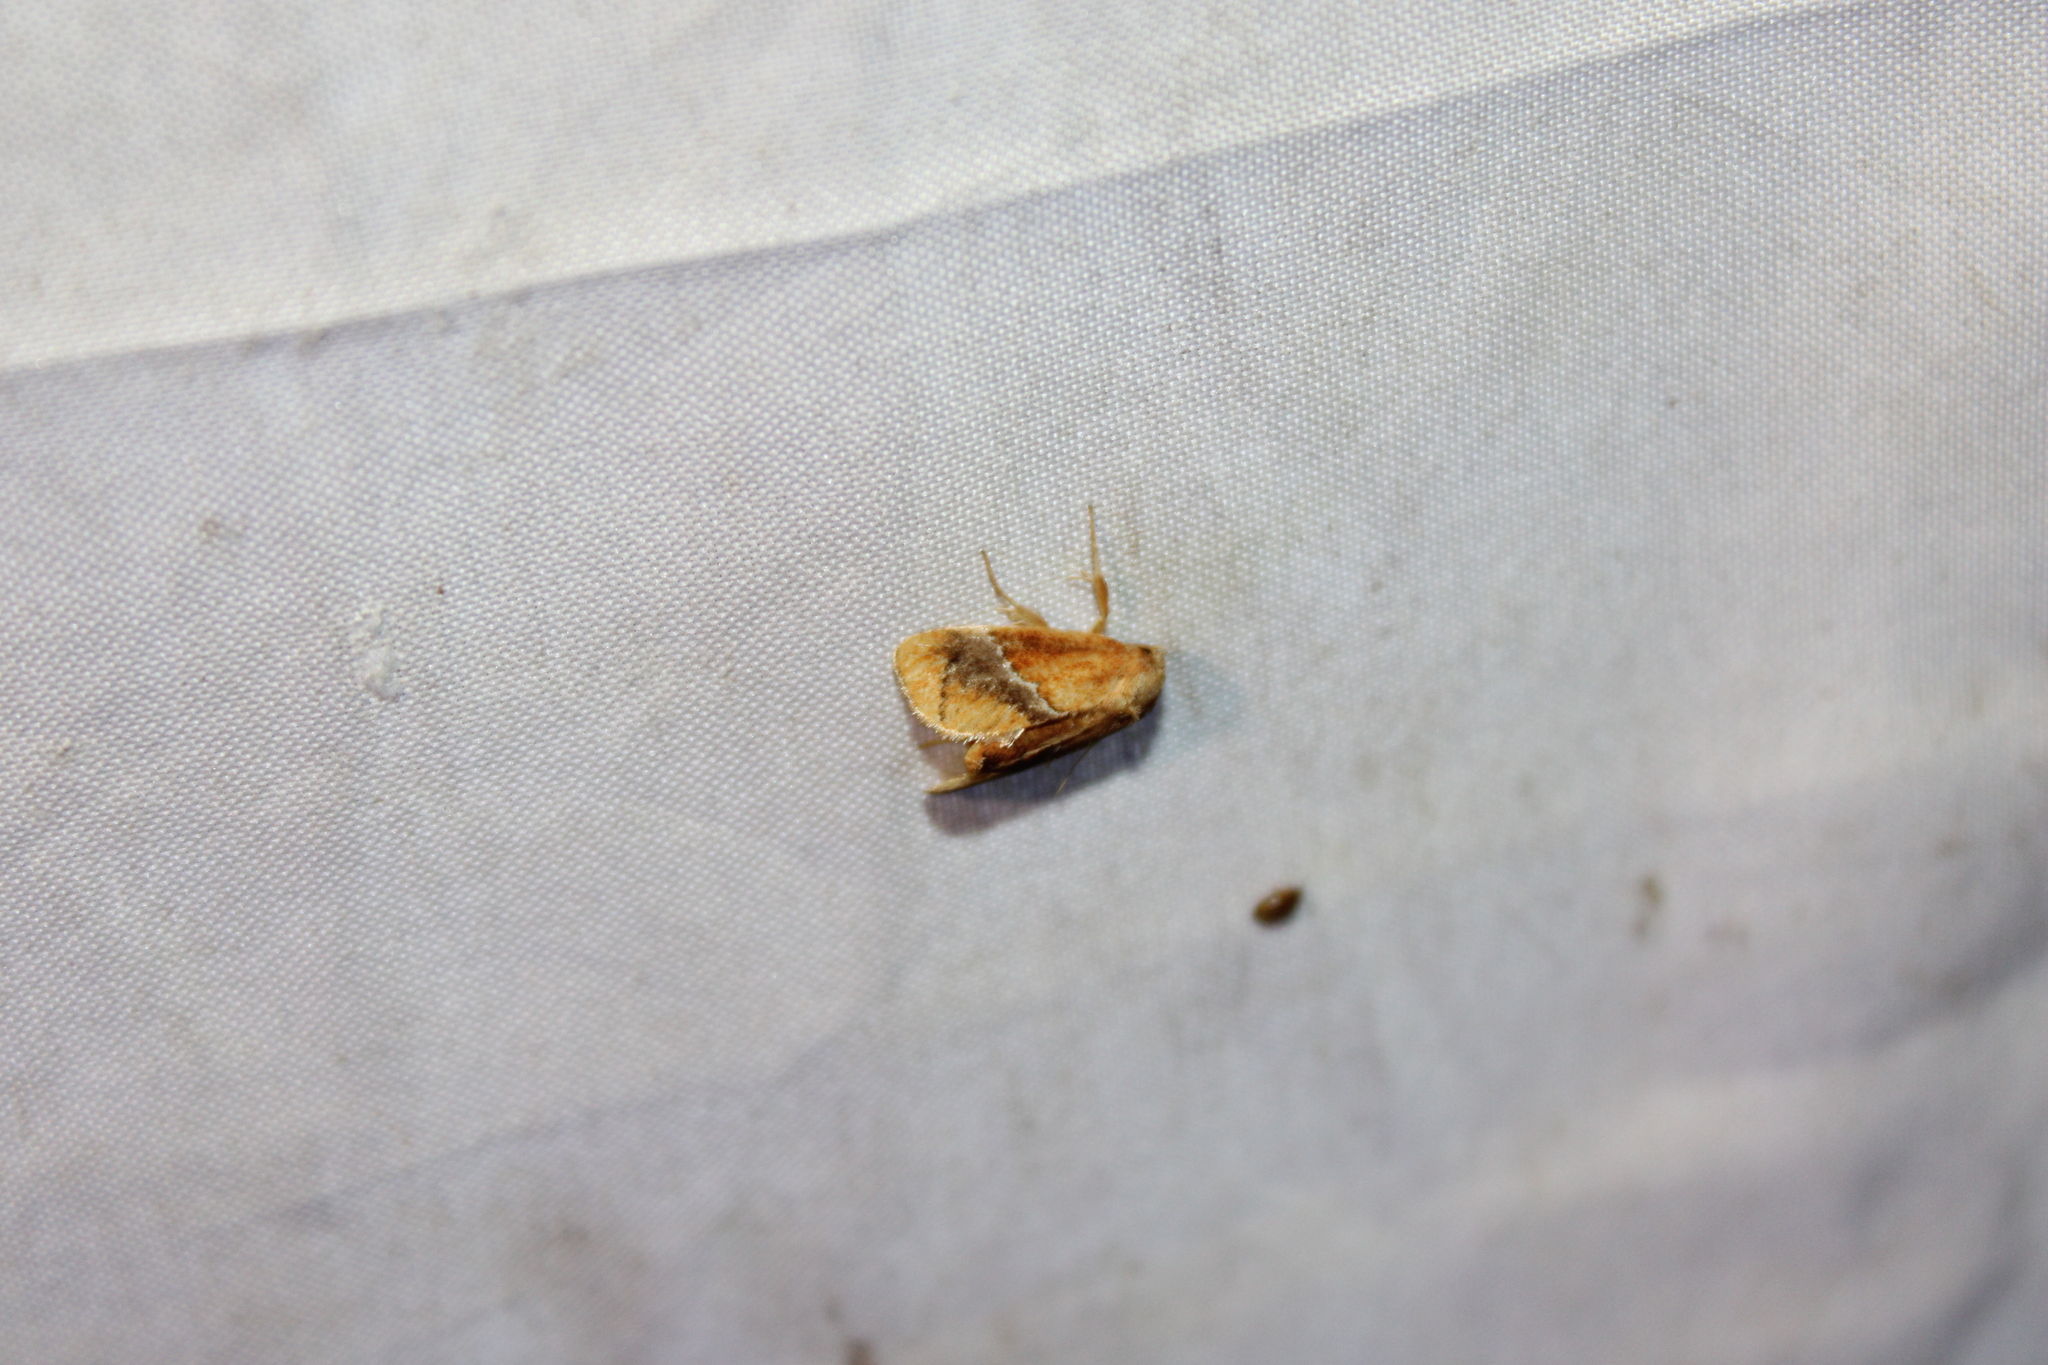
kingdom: Animalia
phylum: Arthropoda
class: Insecta
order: Lepidoptera
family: Limacodidae
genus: Lithacodes
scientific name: Lithacodes fasciola
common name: Yellow-shouldered slug moth
